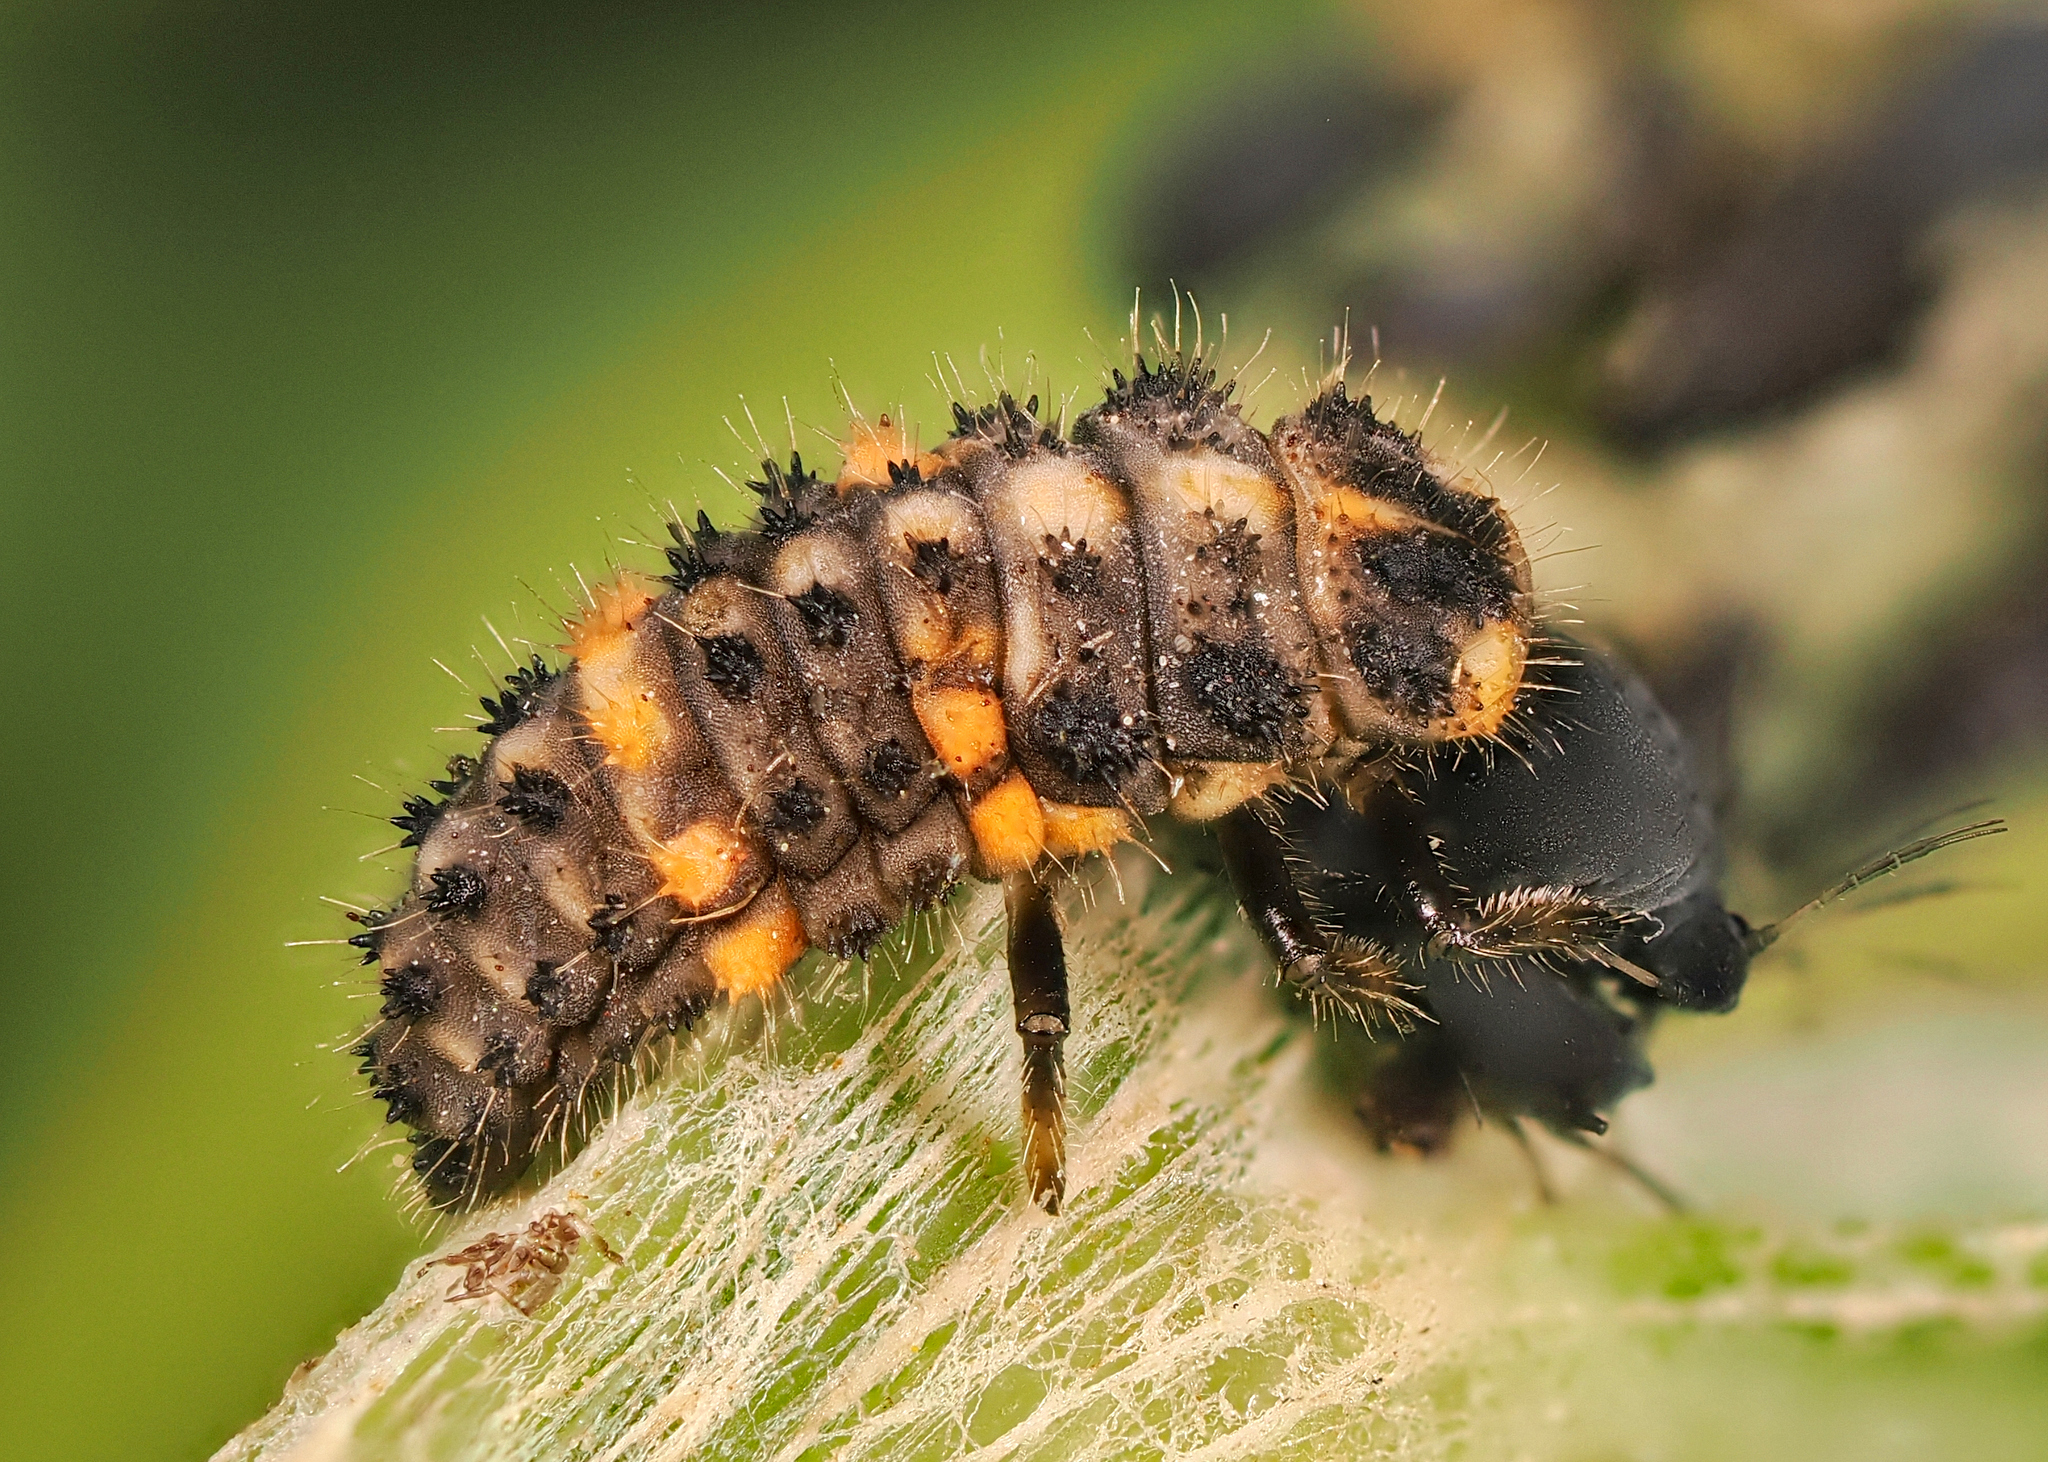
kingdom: Animalia
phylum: Arthropoda
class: Insecta
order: Coleoptera
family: Coccinellidae
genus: Ceratomegilla
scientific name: Ceratomegilla alpina
